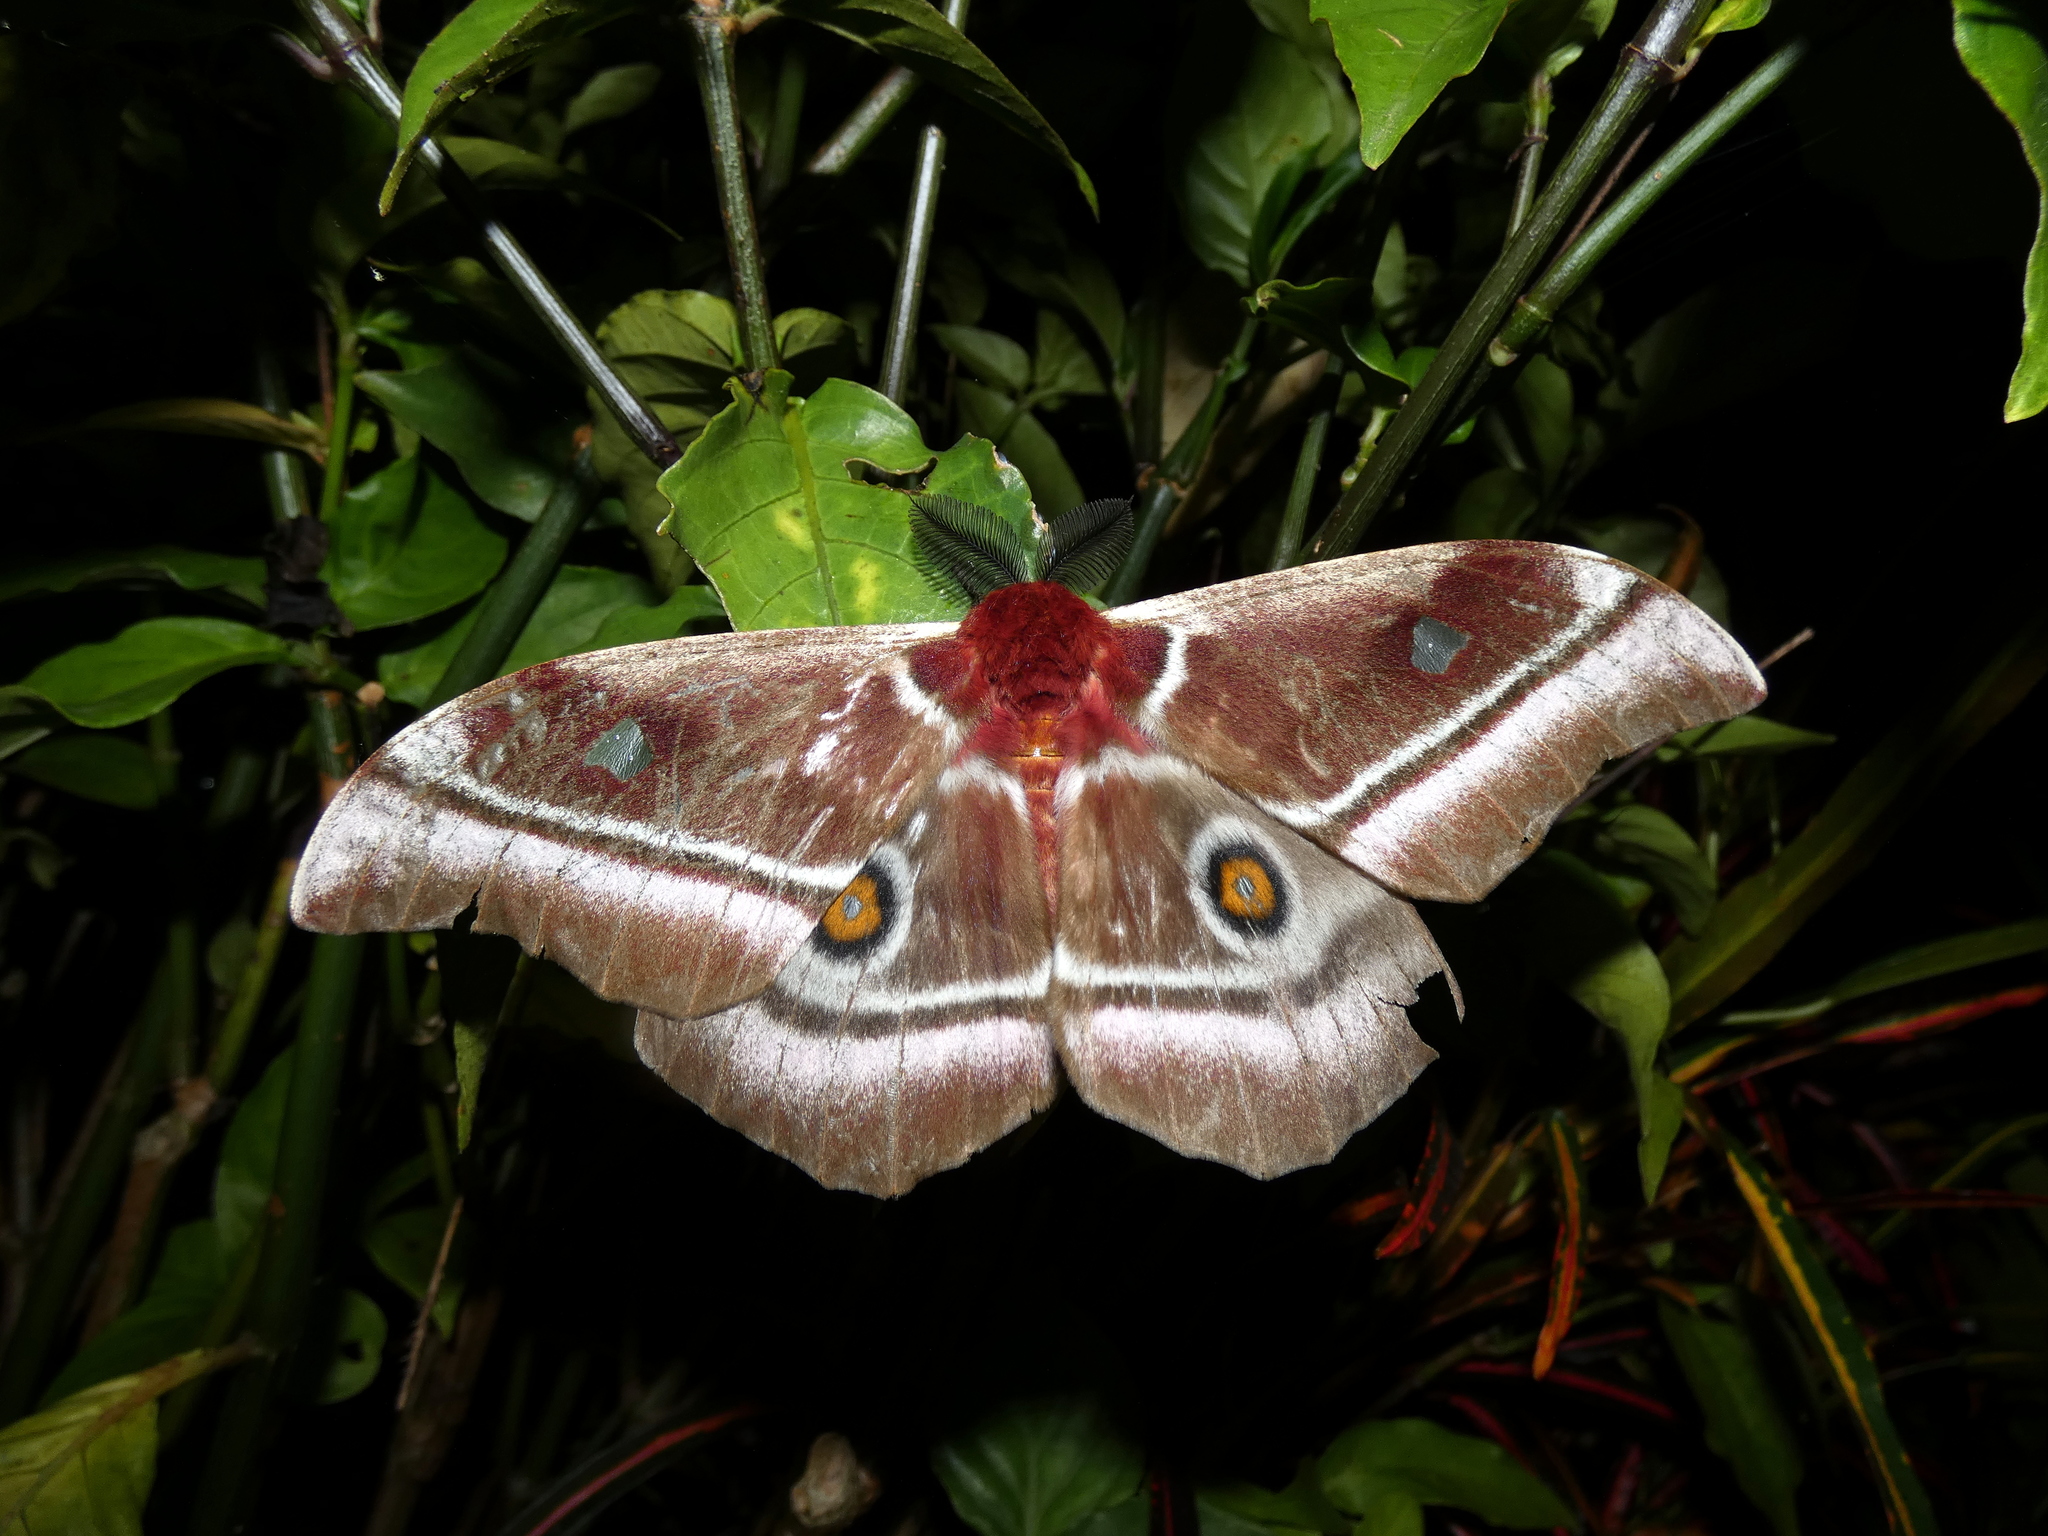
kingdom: Animalia
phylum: Arthropoda
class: Insecta
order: Lepidoptera
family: Saturniidae
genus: Bunaea
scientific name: Bunaea aslauga
